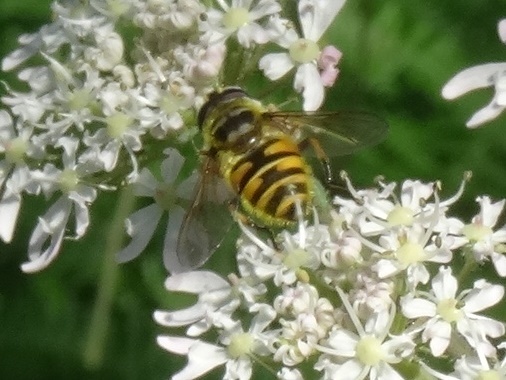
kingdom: Animalia
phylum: Arthropoda
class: Insecta
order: Diptera
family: Syrphidae
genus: Myathropa
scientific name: Myathropa florea
